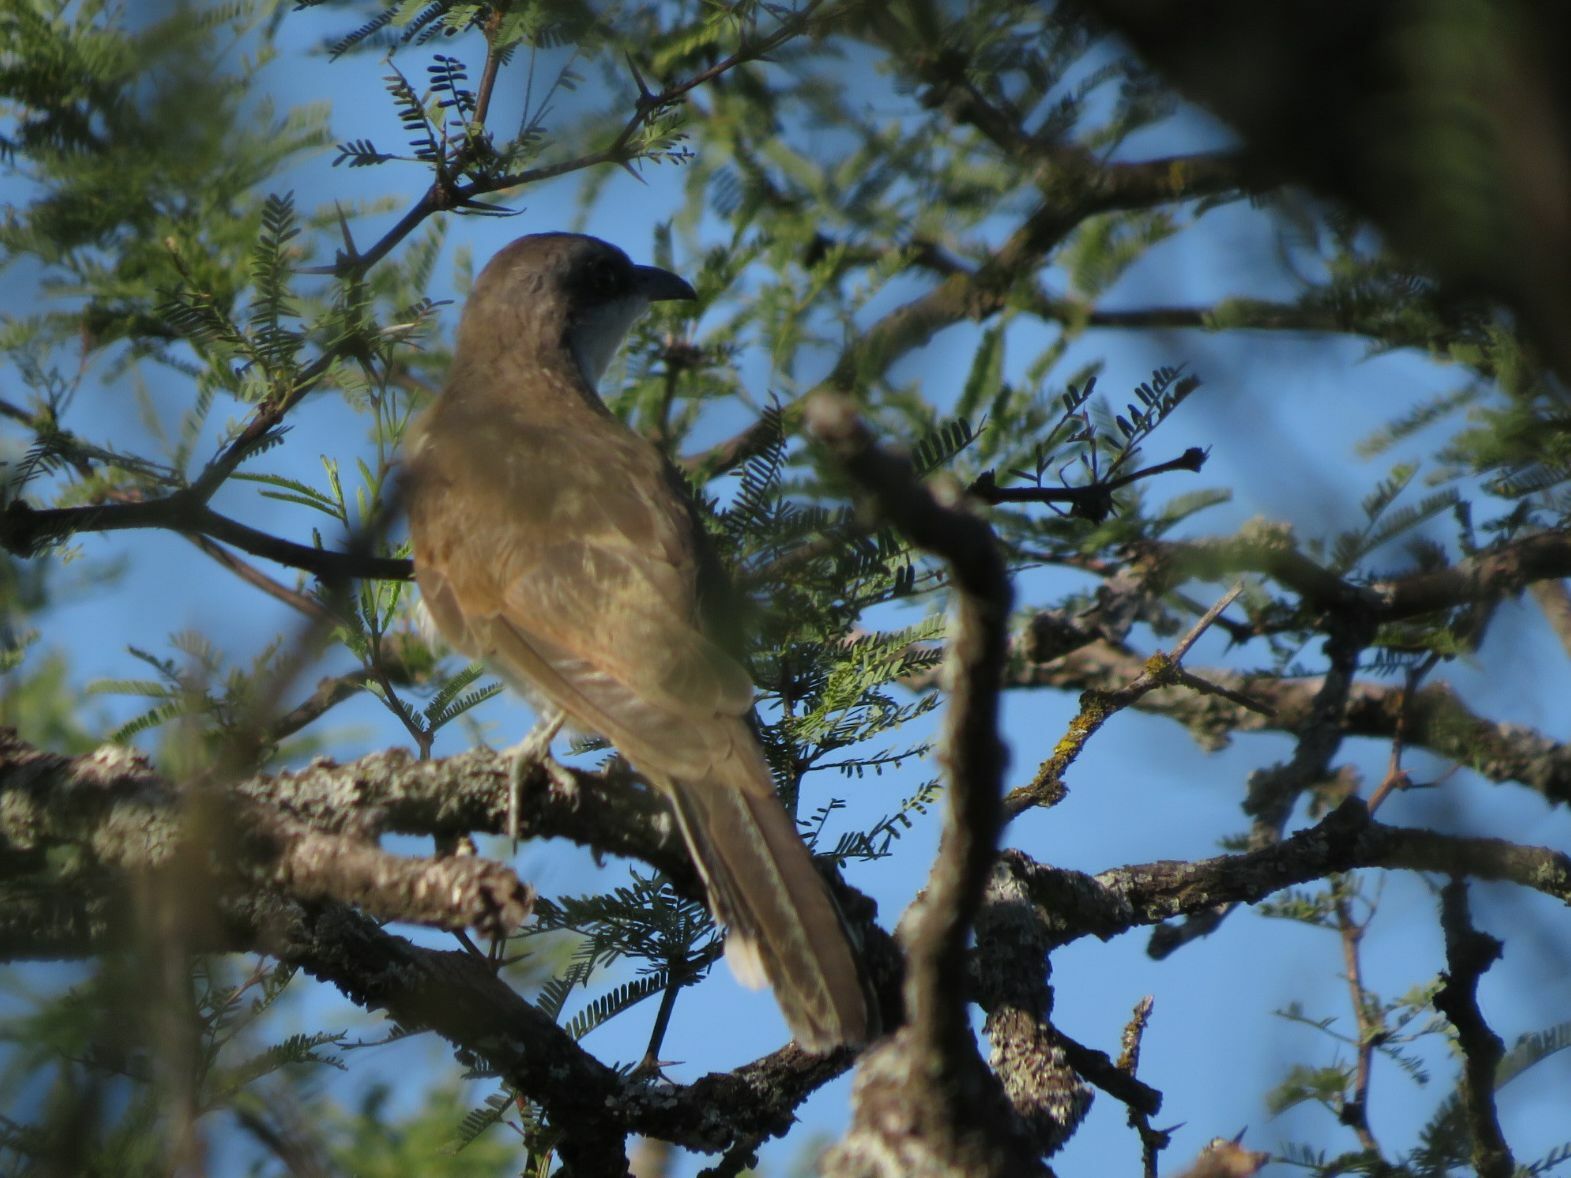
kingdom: Animalia
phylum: Chordata
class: Aves
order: Cuculiformes
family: Cuculidae
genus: Coccyzus
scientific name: Coccyzus melacoryphus
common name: Dark-billed cuckoo
